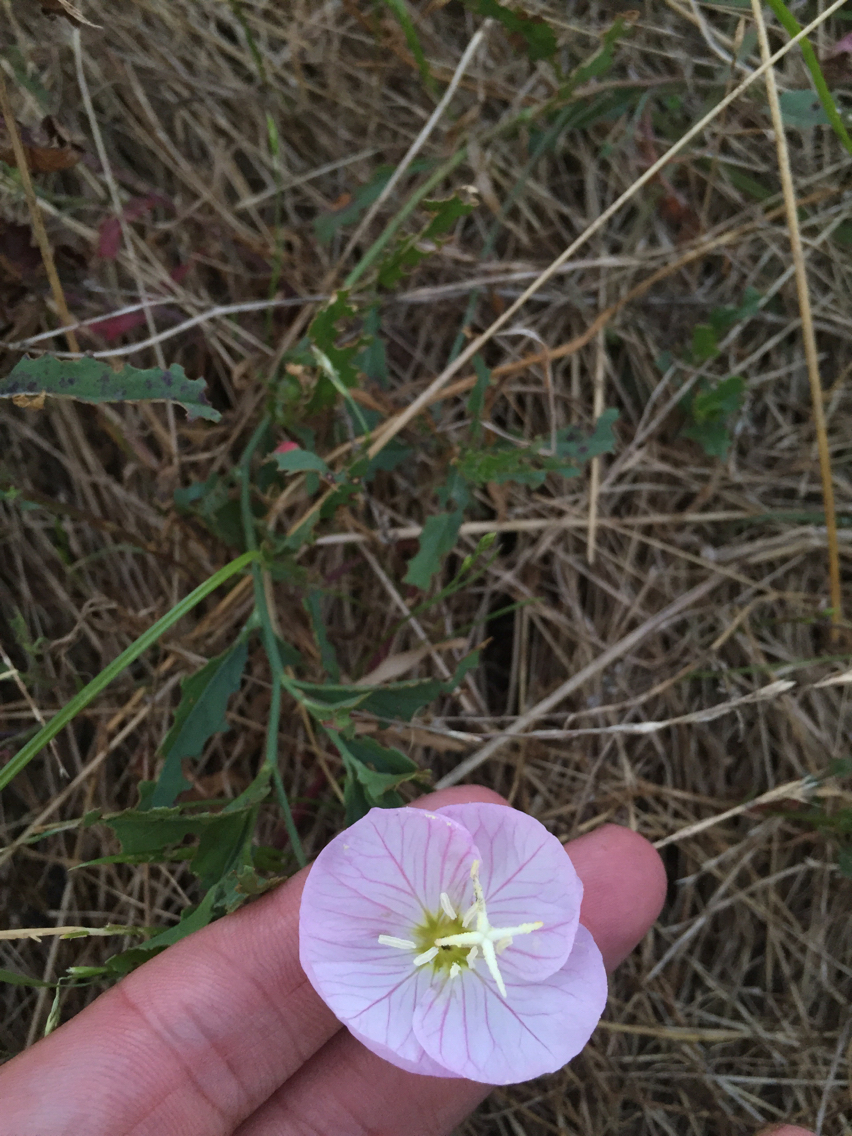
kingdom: Plantae
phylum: Tracheophyta
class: Magnoliopsida
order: Myrtales
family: Onagraceae
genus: Oenothera
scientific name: Oenothera speciosa
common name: White evening-primrose
